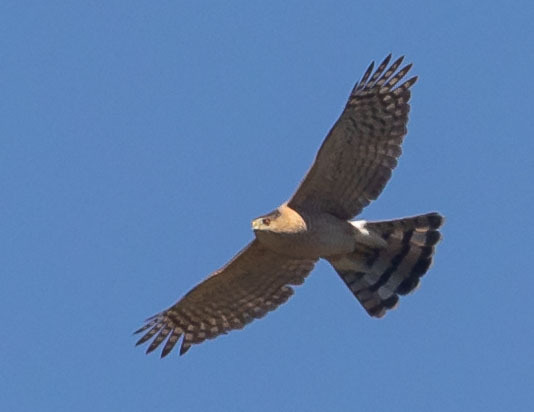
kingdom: Animalia
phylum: Chordata
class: Aves
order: Accipitriformes
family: Accipitridae
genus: Accipiter
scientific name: Accipiter cooperii
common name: Cooper's hawk
